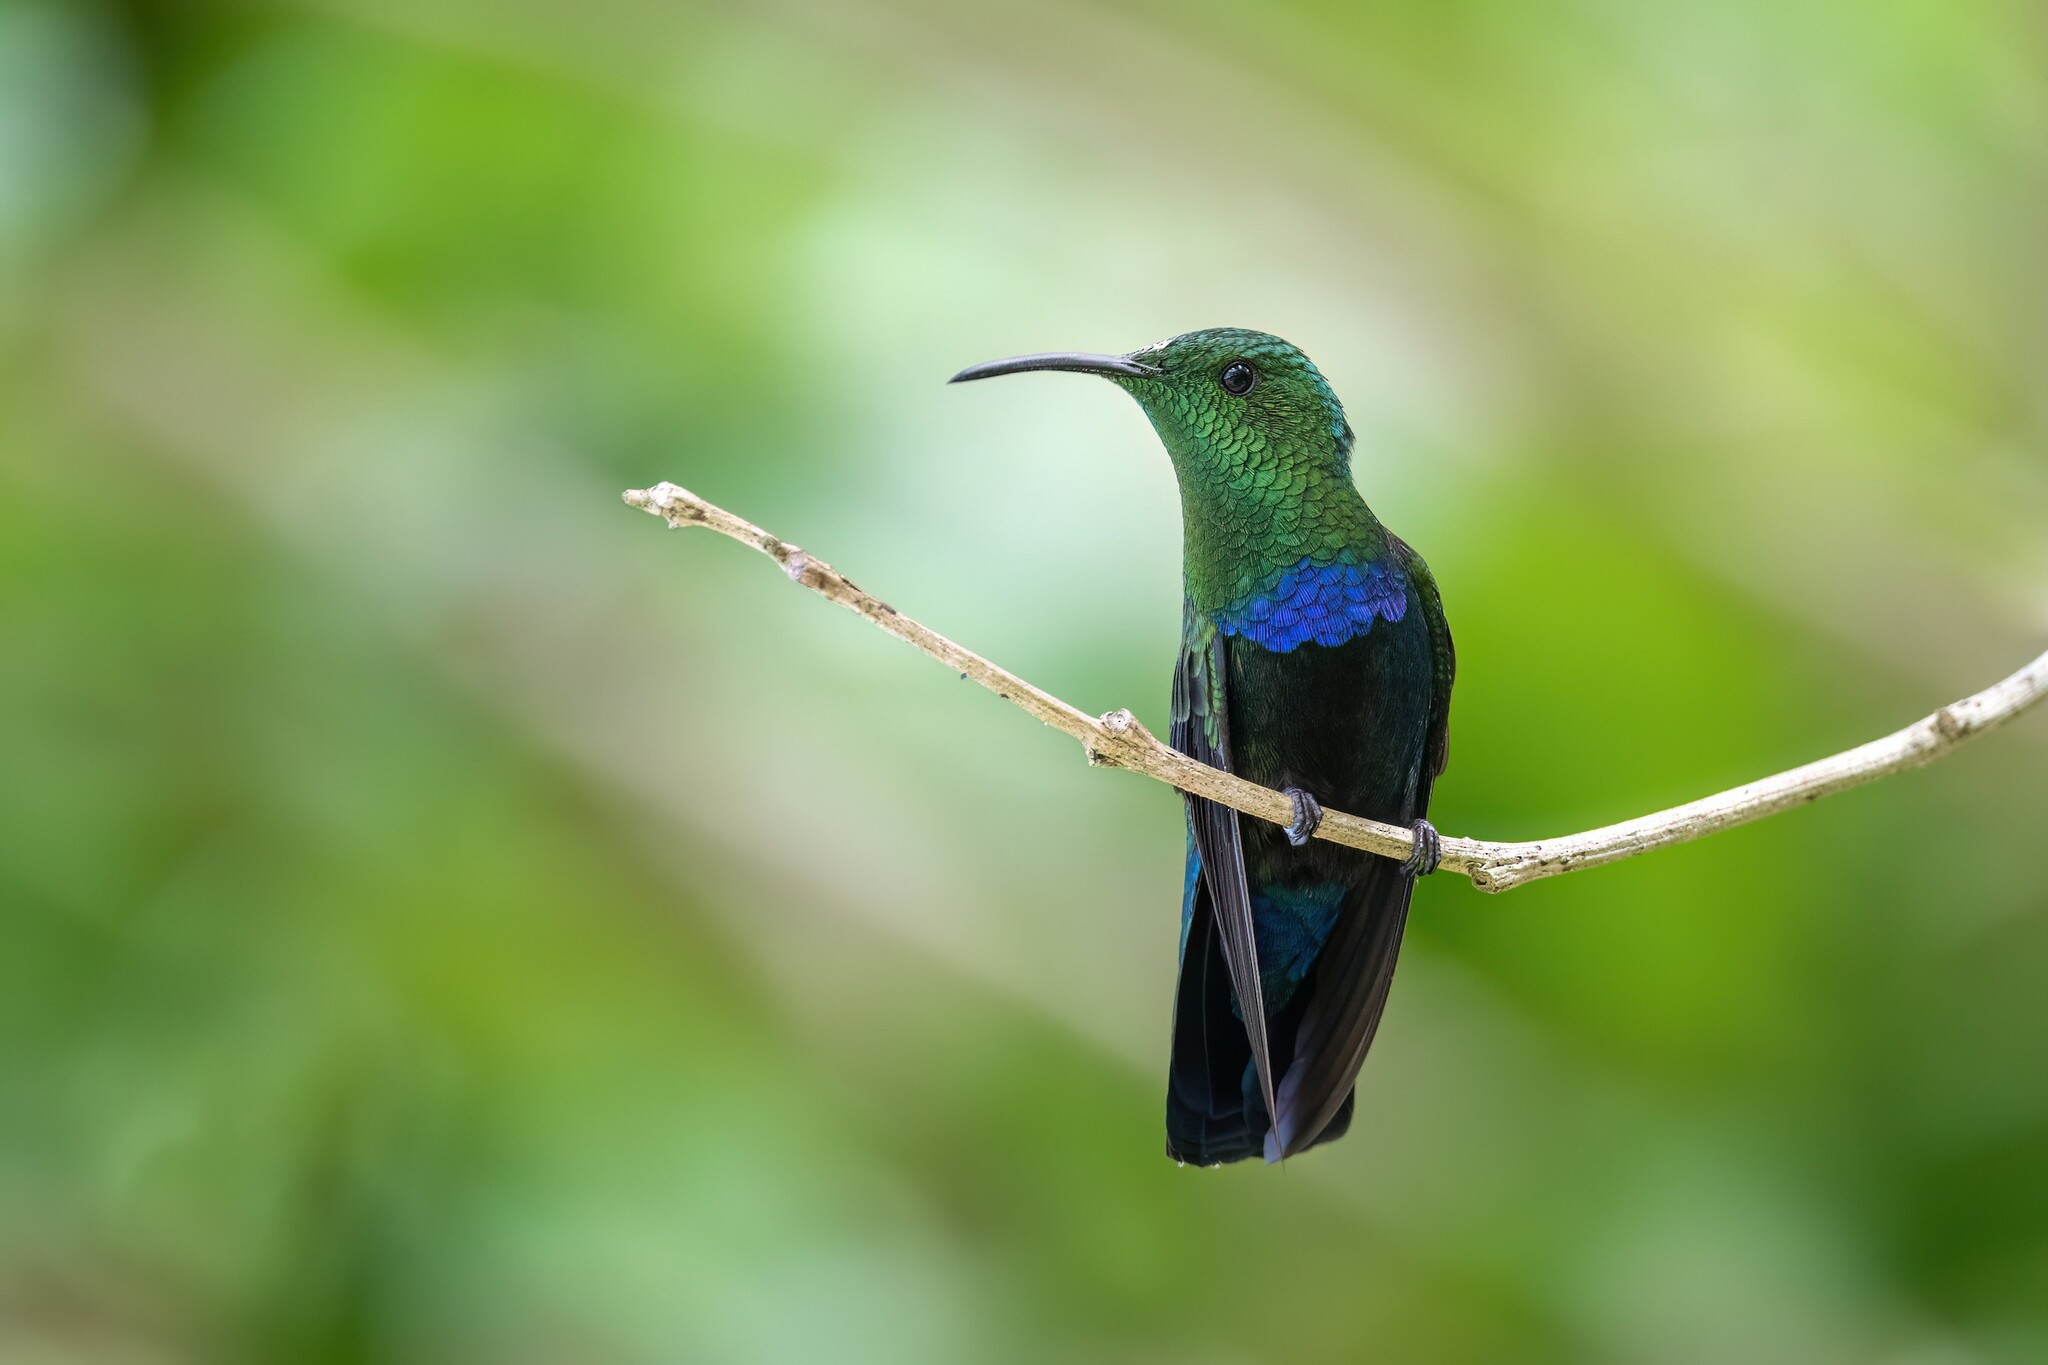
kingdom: Animalia
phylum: Chordata
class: Aves
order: Apodiformes
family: Trochilidae
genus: Eulampis
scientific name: Eulampis holosericeus
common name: Green-throated carib
